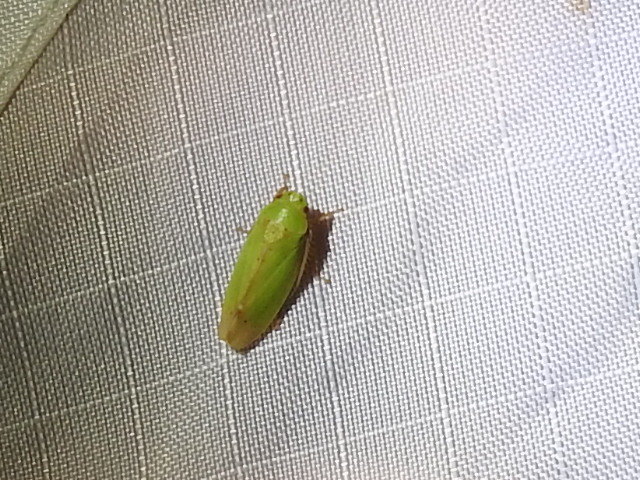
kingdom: Animalia
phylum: Arthropoda
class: Insecta
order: Hemiptera
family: Cicadellidae
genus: Ponana
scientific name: Ponana
